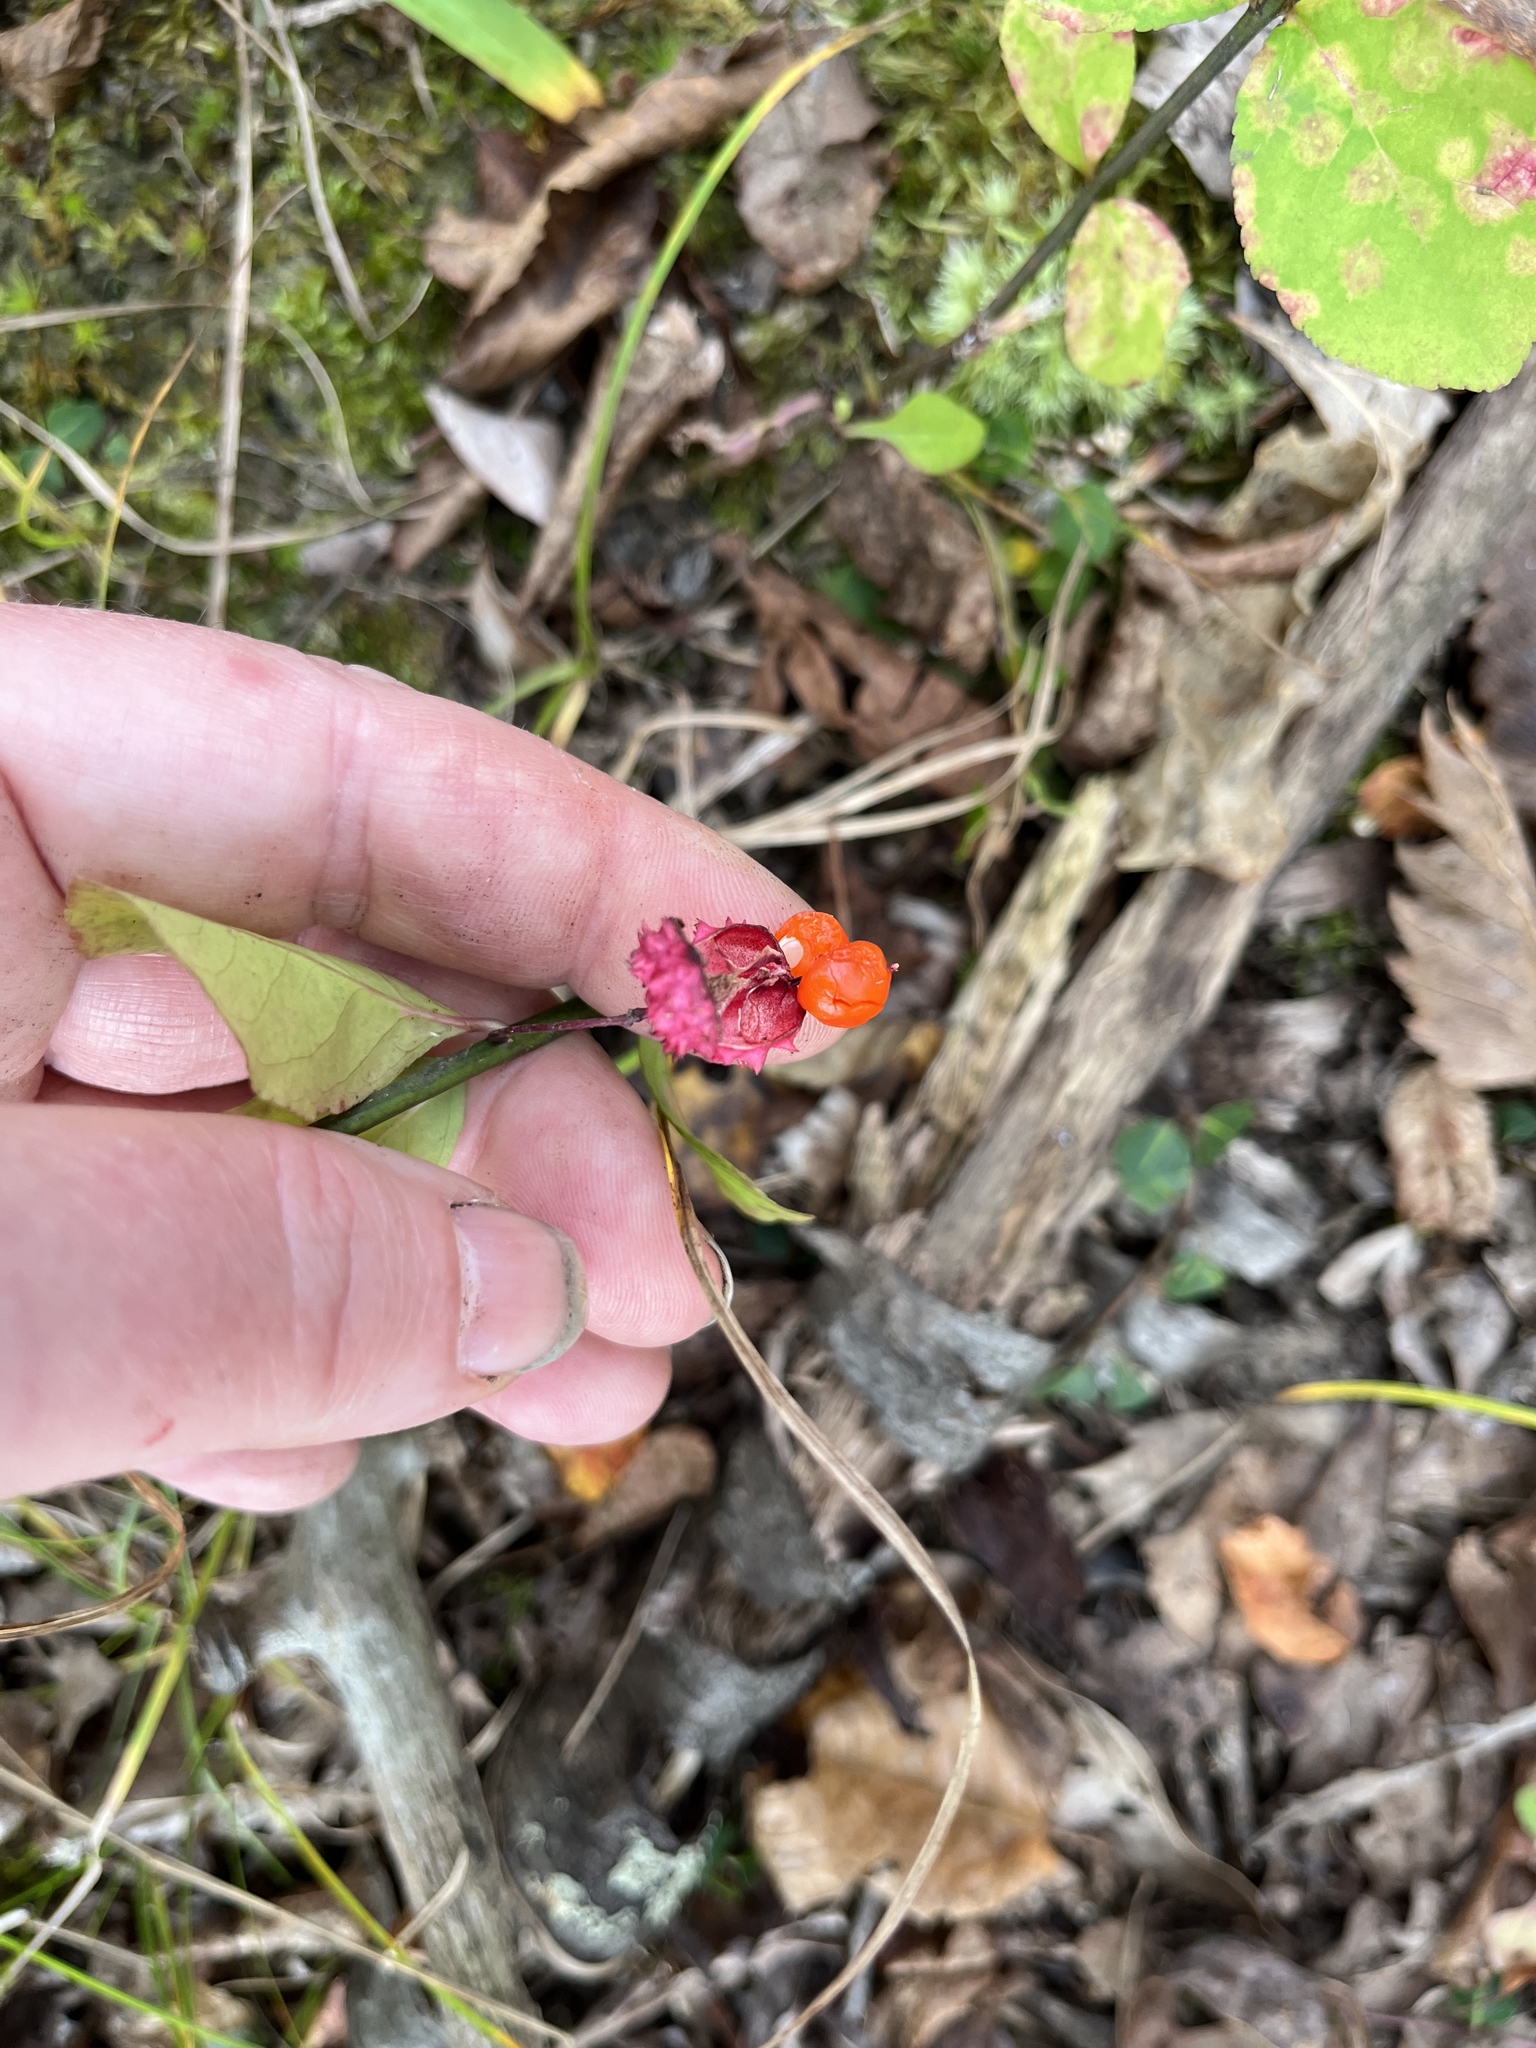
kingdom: Plantae
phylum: Tracheophyta
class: Magnoliopsida
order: Celastrales
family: Celastraceae
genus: Euonymus
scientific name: Euonymus obovatus
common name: Running strawberry-bush
